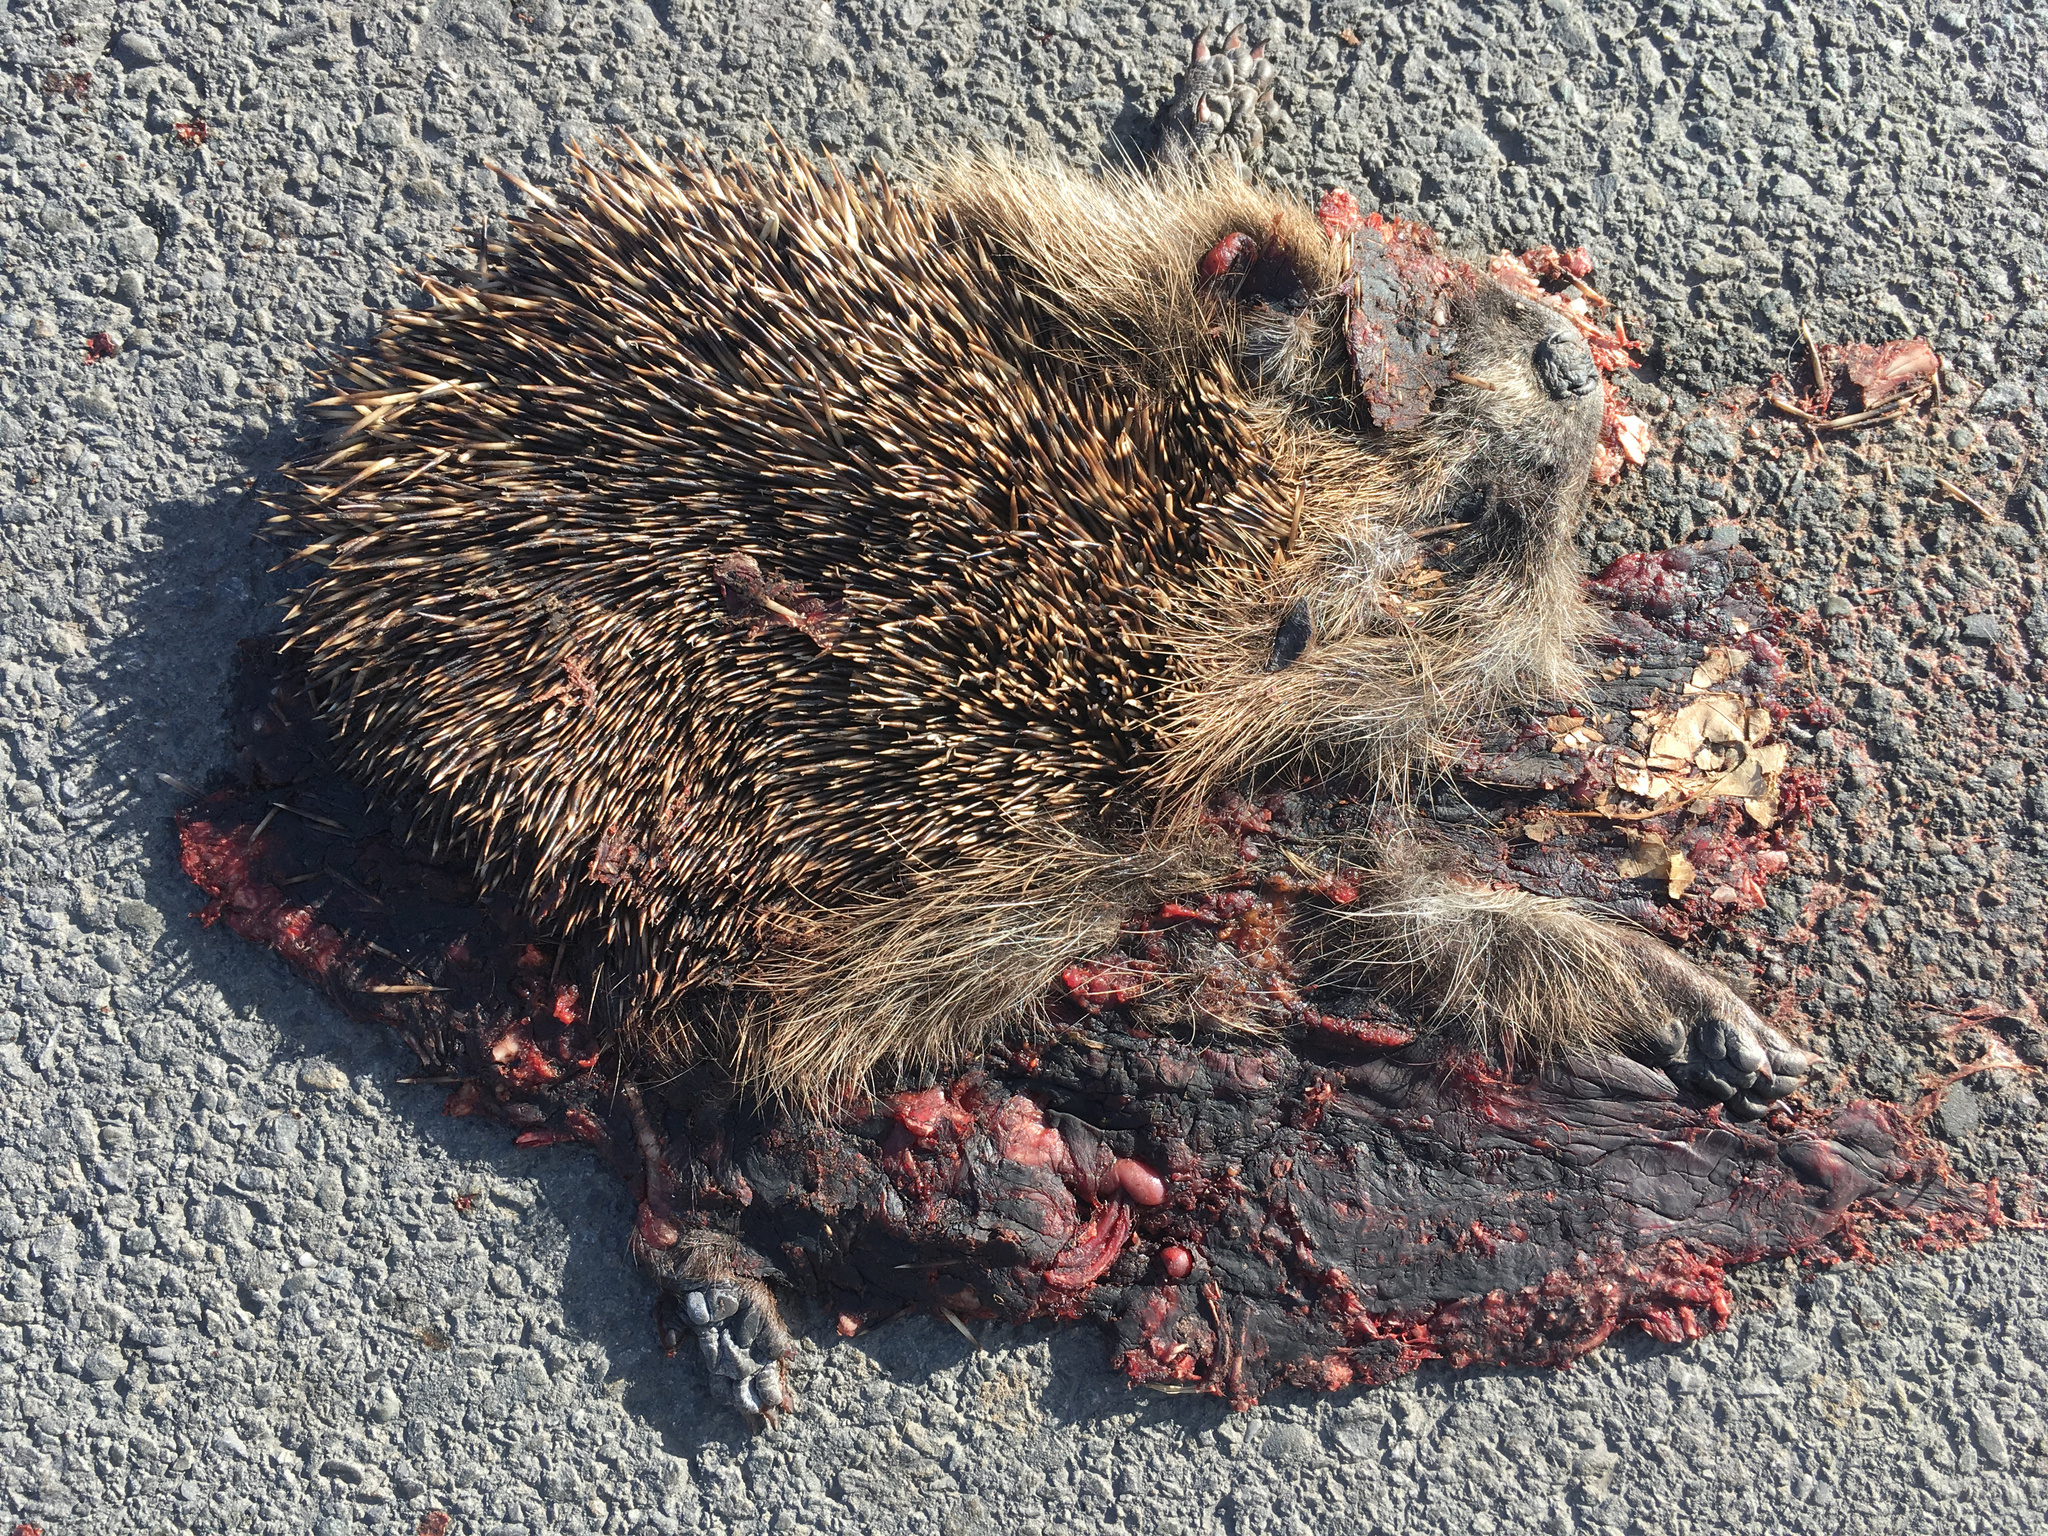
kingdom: Animalia
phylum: Chordata
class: Mammalia
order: Erinaceomorpha
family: Erinaceidae
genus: Erinaceus
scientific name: Erinaceus europaeus
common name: West european hedgehog
